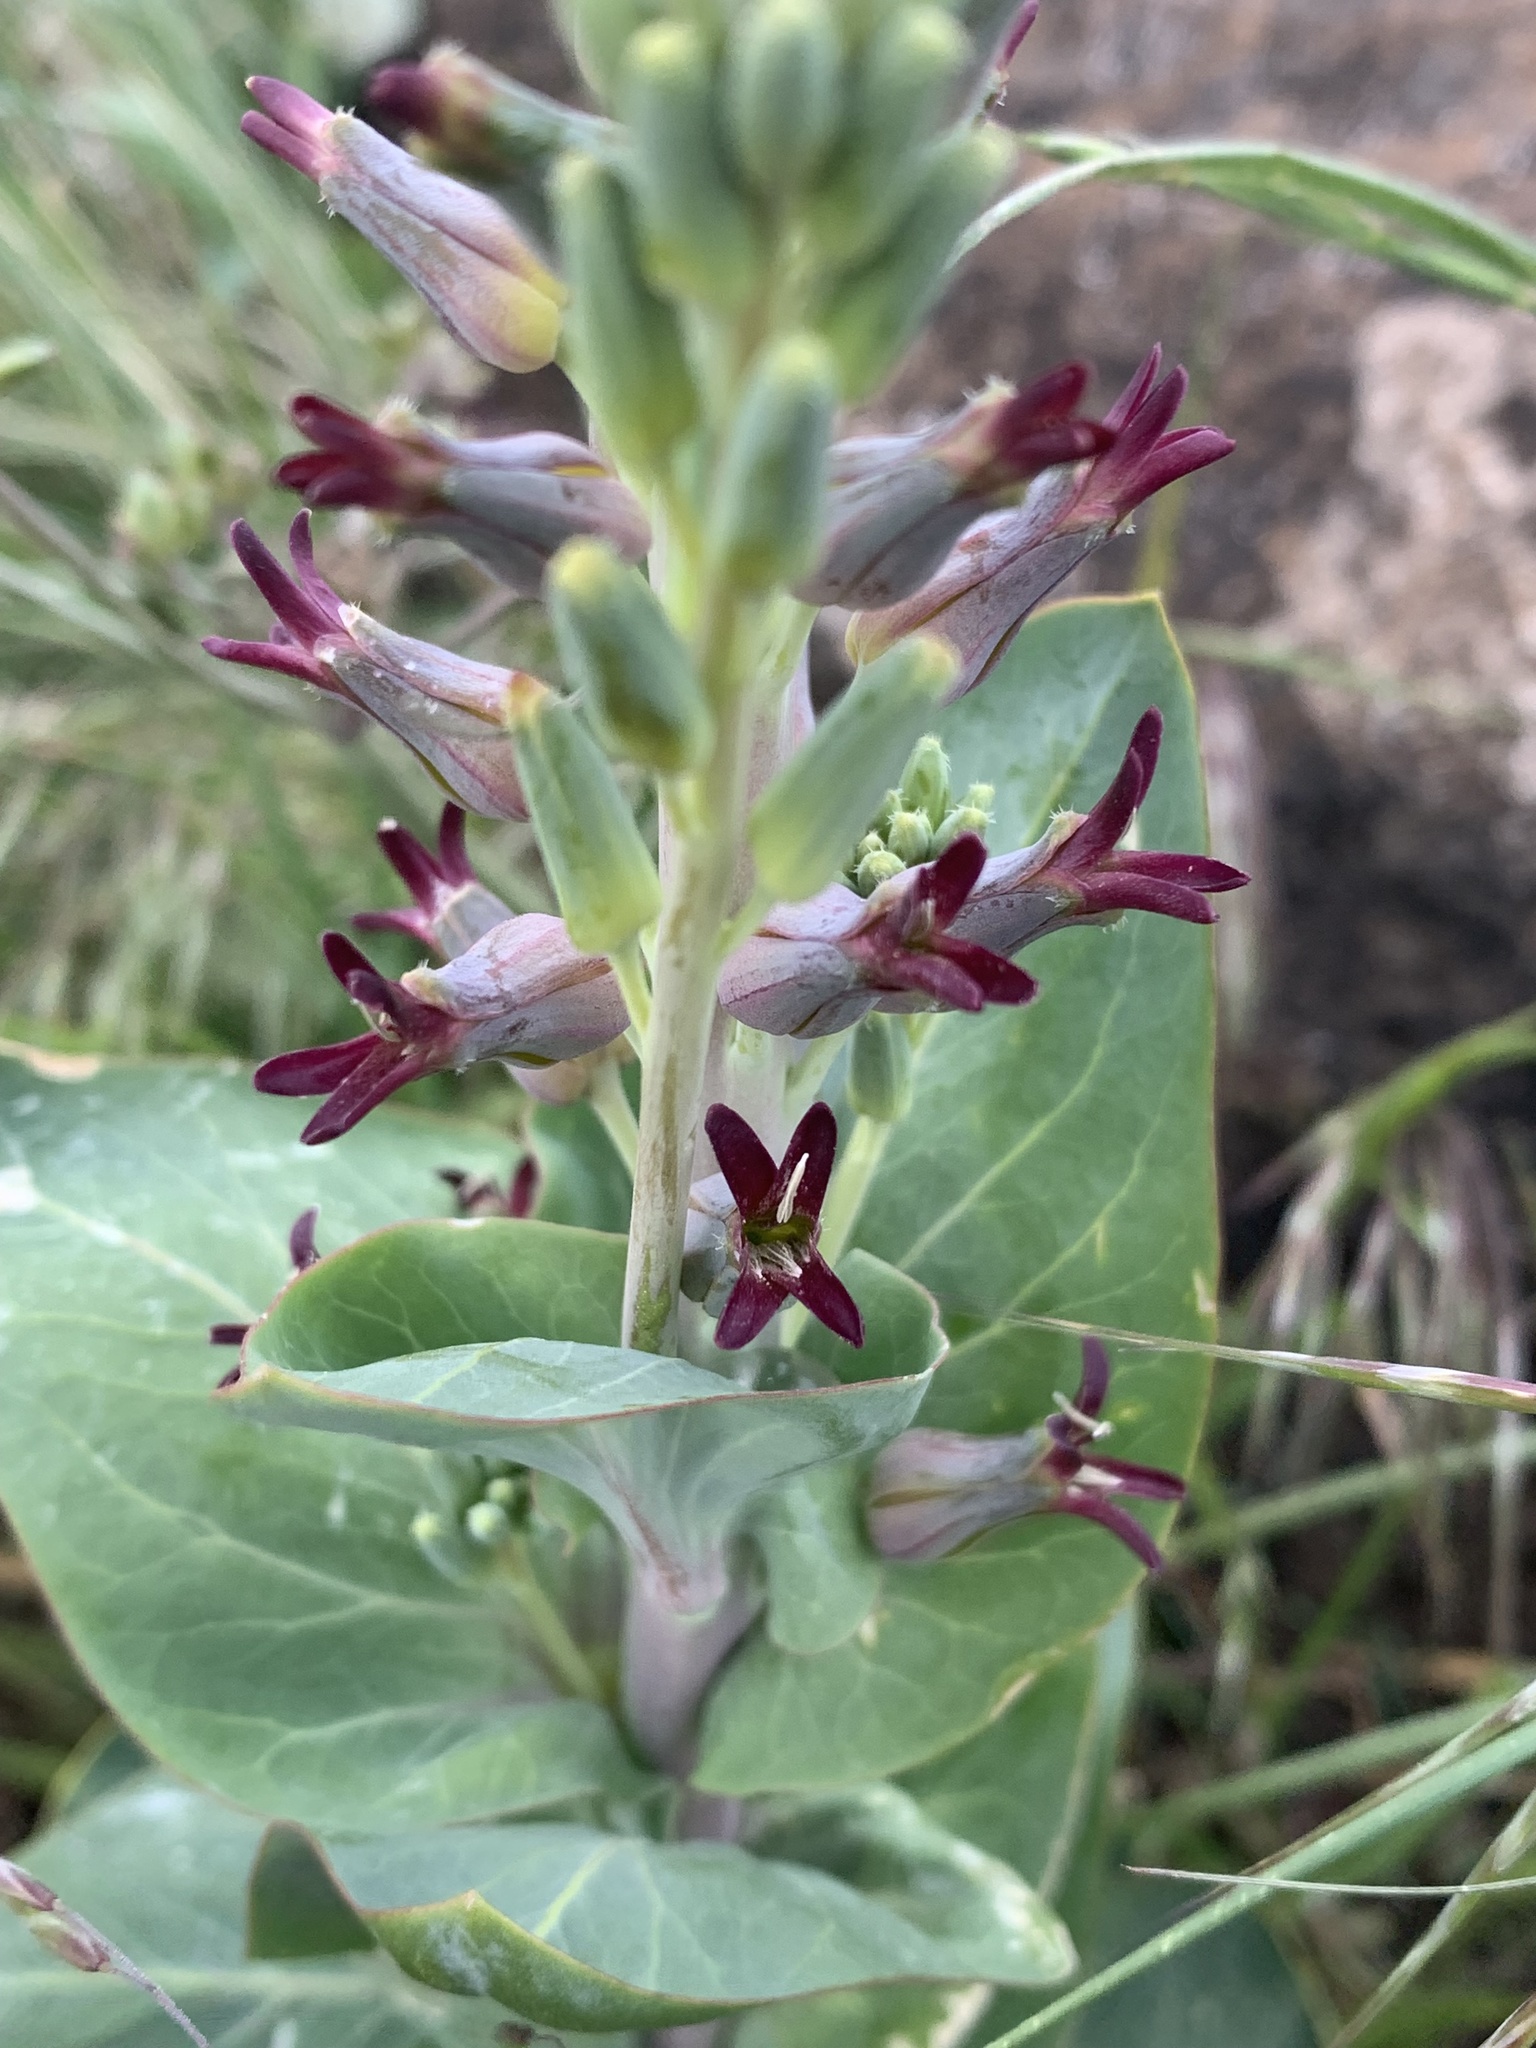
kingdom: Plantae
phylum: Tracheophyta
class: Magnoliopsida
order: Brassicales
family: Brassicaceae
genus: Streptanthus
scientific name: Streptanthus cordatus
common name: Heart-leaf jewel-flower
